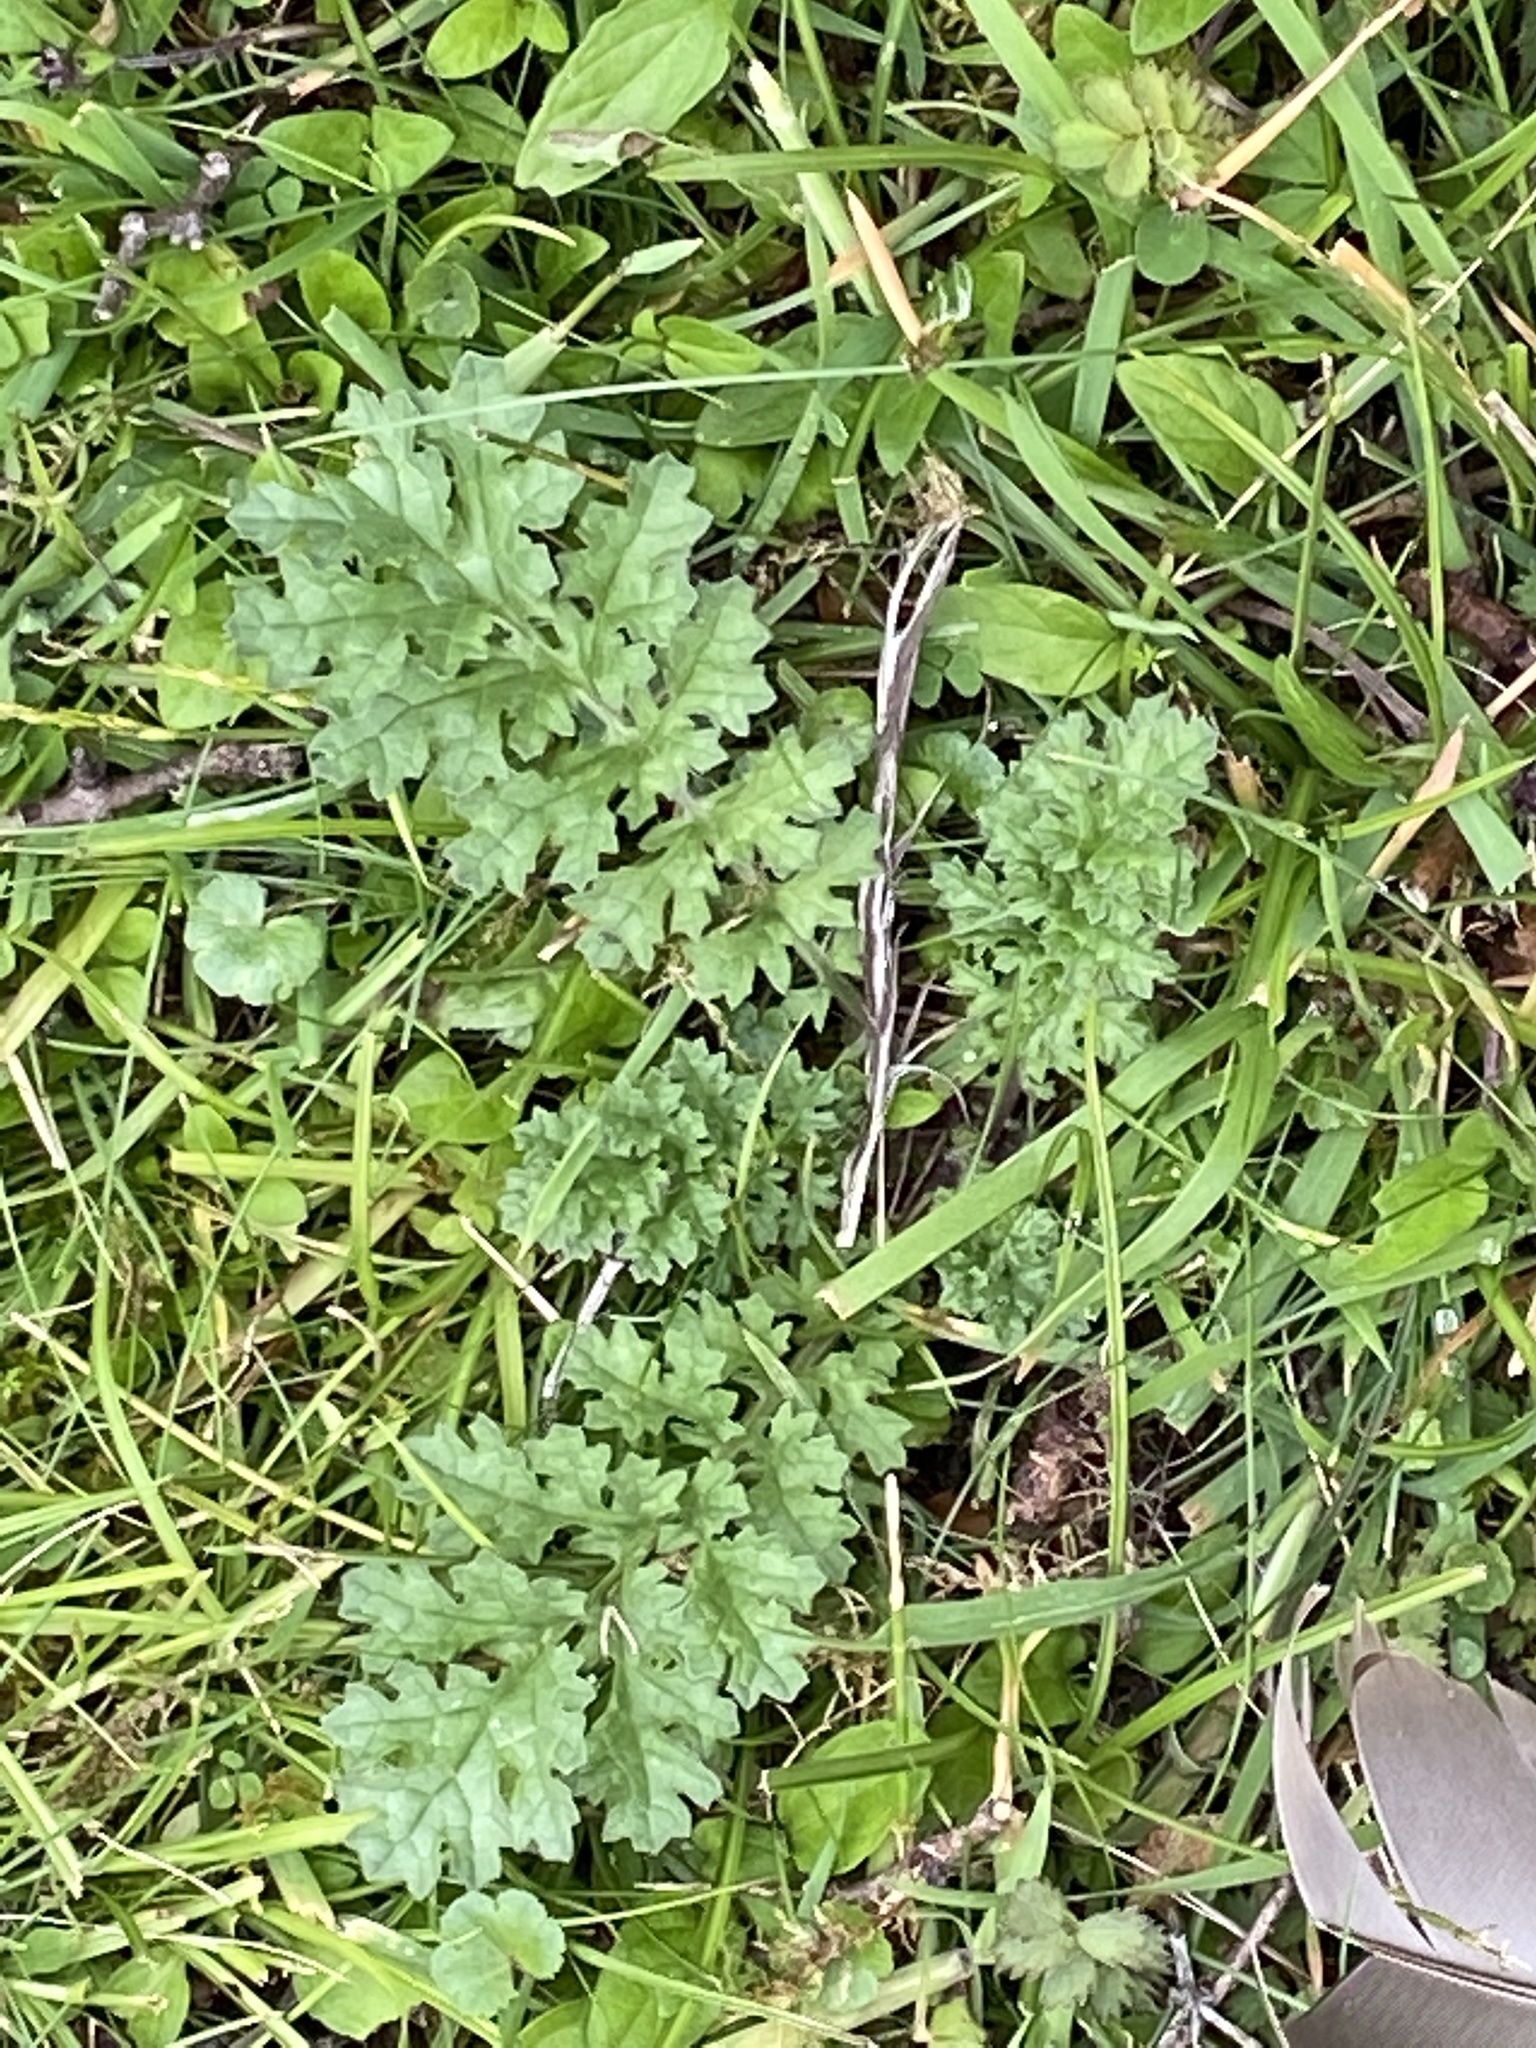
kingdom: Plantae
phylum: Tracheophyta
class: Magnoliopsida
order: Asterales
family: Asteraceae
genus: Jacobaea
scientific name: Jacobaea vulgaris
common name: Stinking willie
